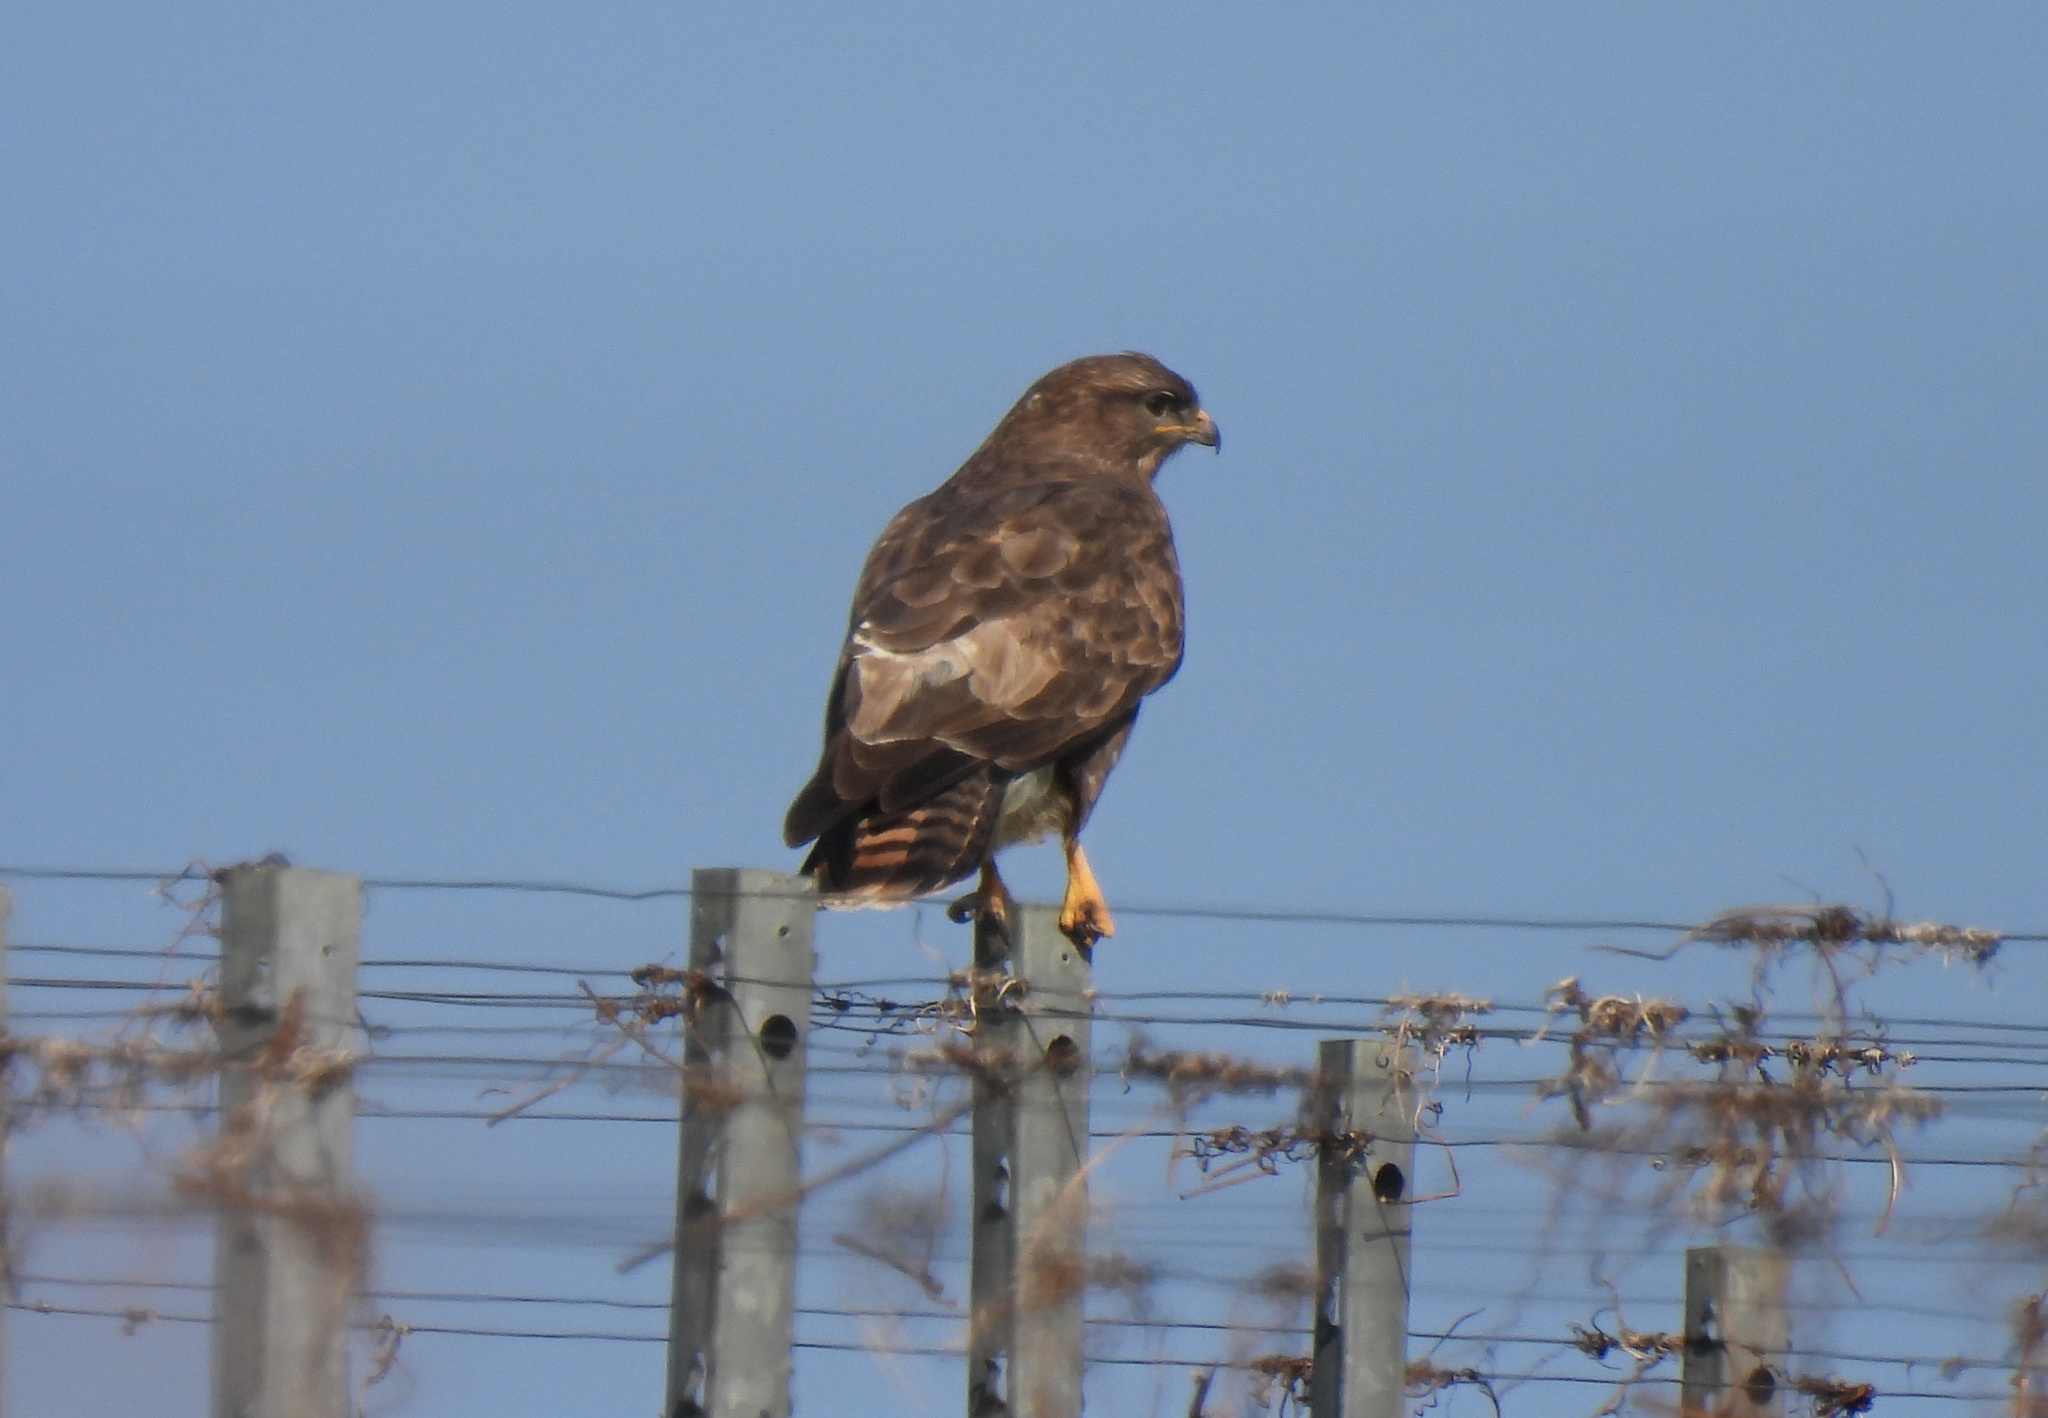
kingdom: Animalia
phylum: Chordata
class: Aves
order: Accipitriformes
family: Accipitridae
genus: Buteo
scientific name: Buteo buteo
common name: Common buzzard
